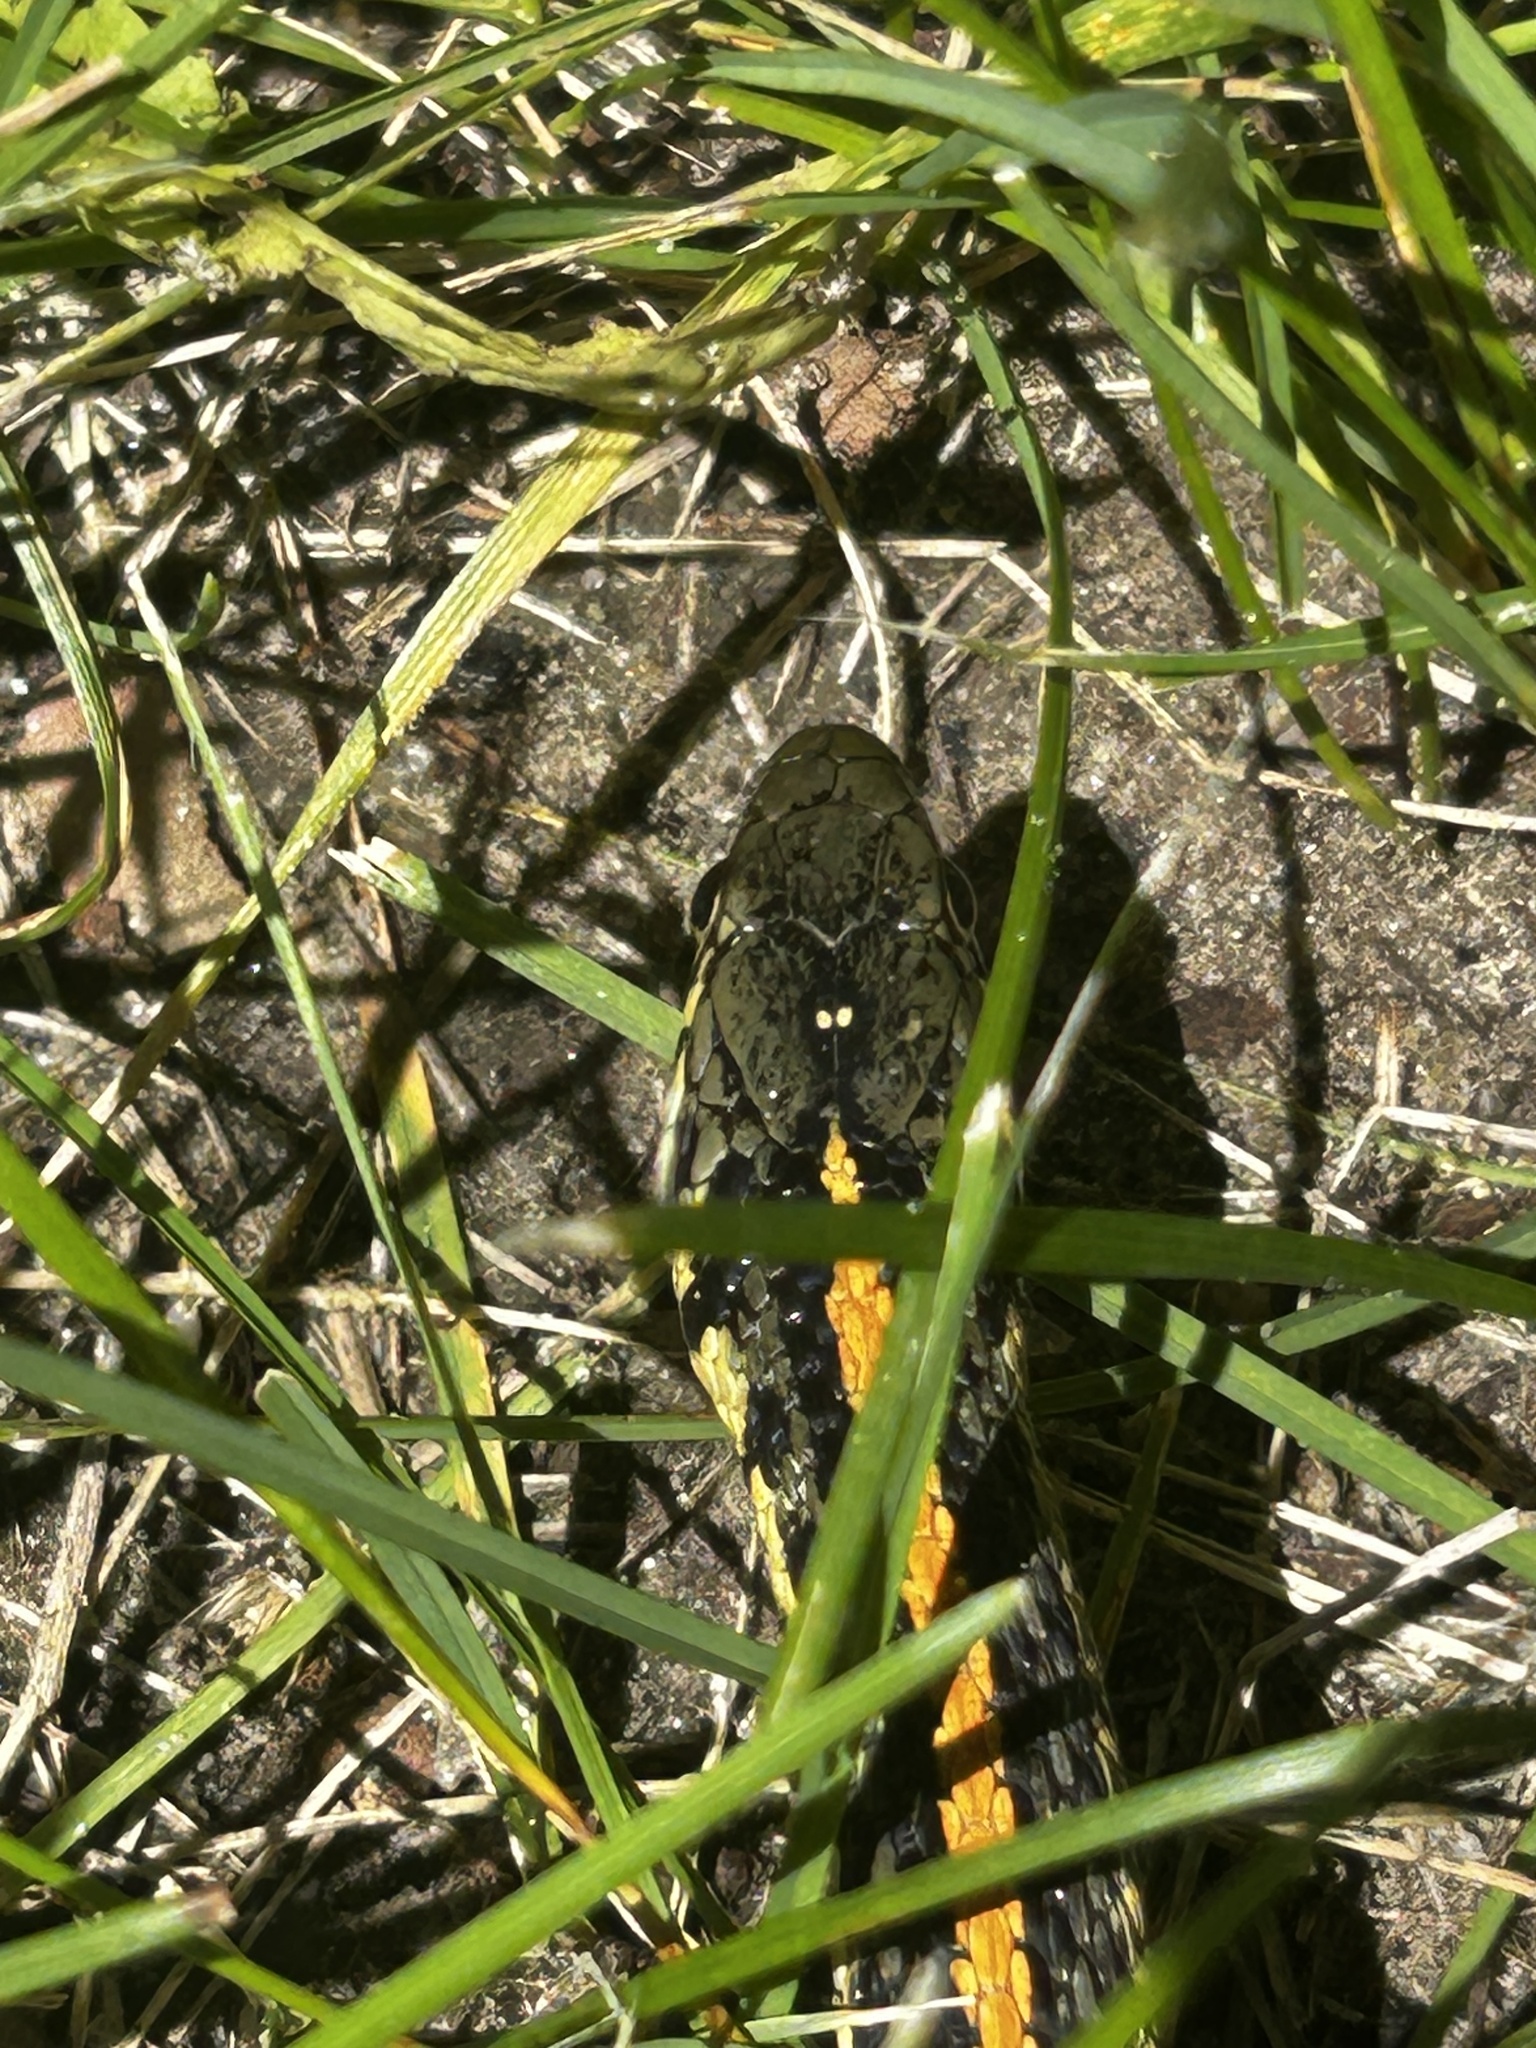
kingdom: Animalia
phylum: Chordata
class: Squamata
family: Colubridae
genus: Thamnophis
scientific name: Thamnophis radix
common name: Plains garter snake
